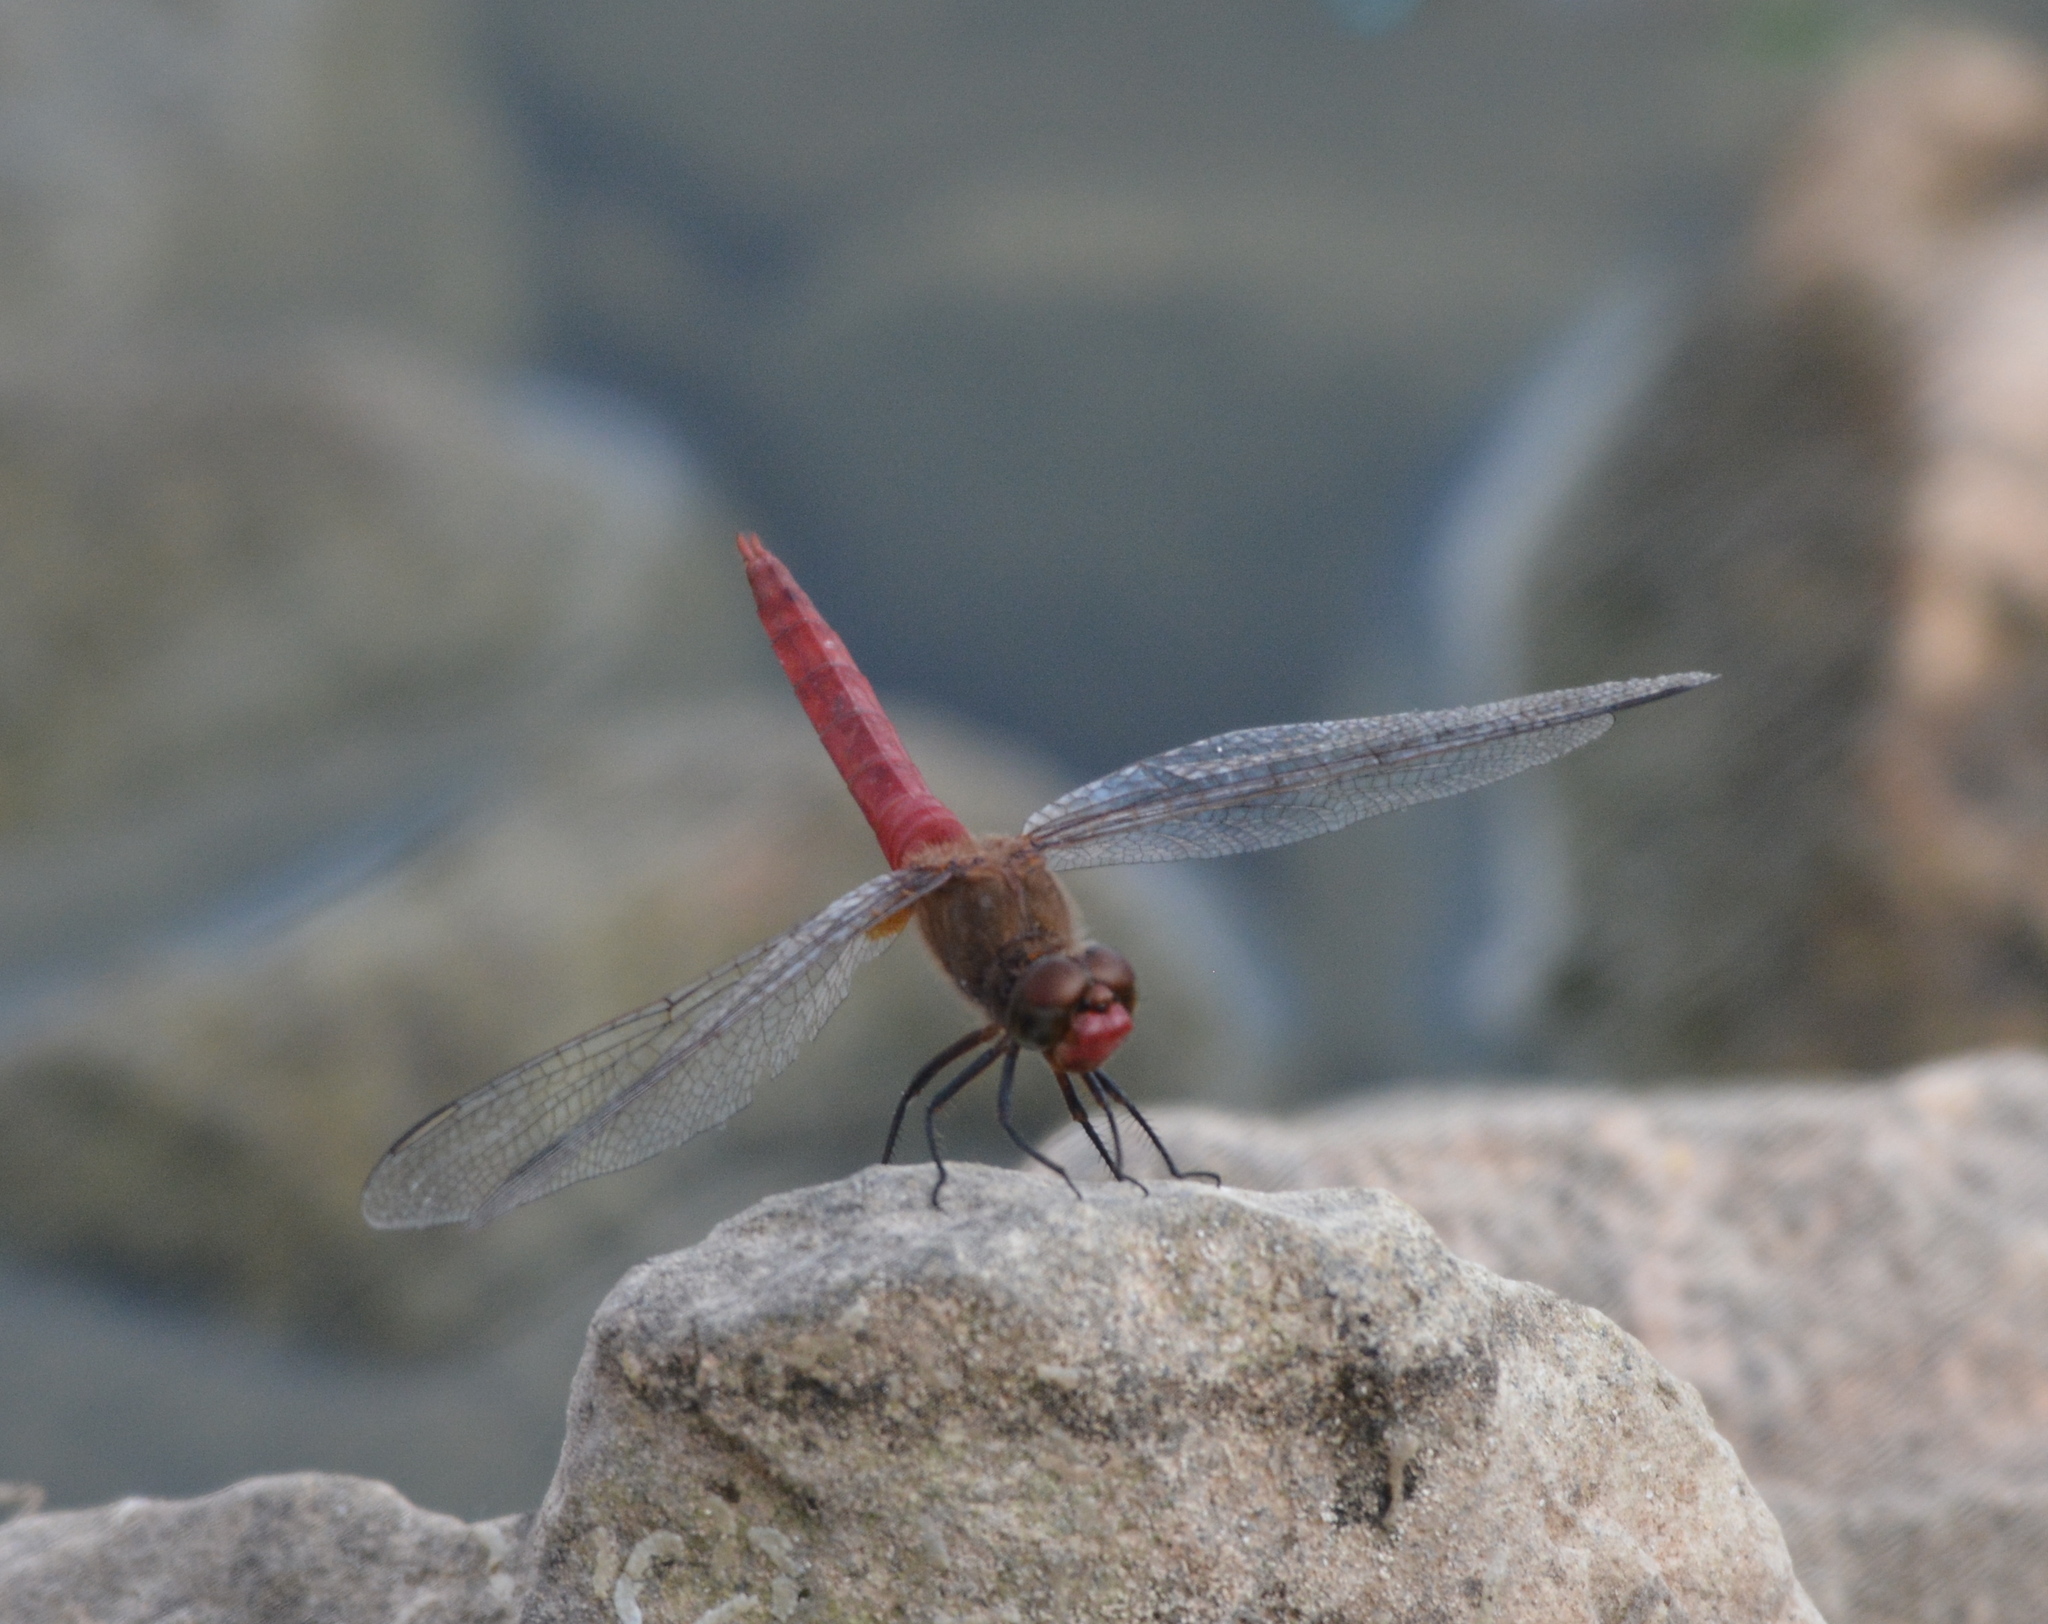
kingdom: Animalia
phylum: Arthropoda
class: Insecta
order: Odonata
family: Libellulidae
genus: Brachymesia
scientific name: Brachymesia furcata
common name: Red-taled pennant
